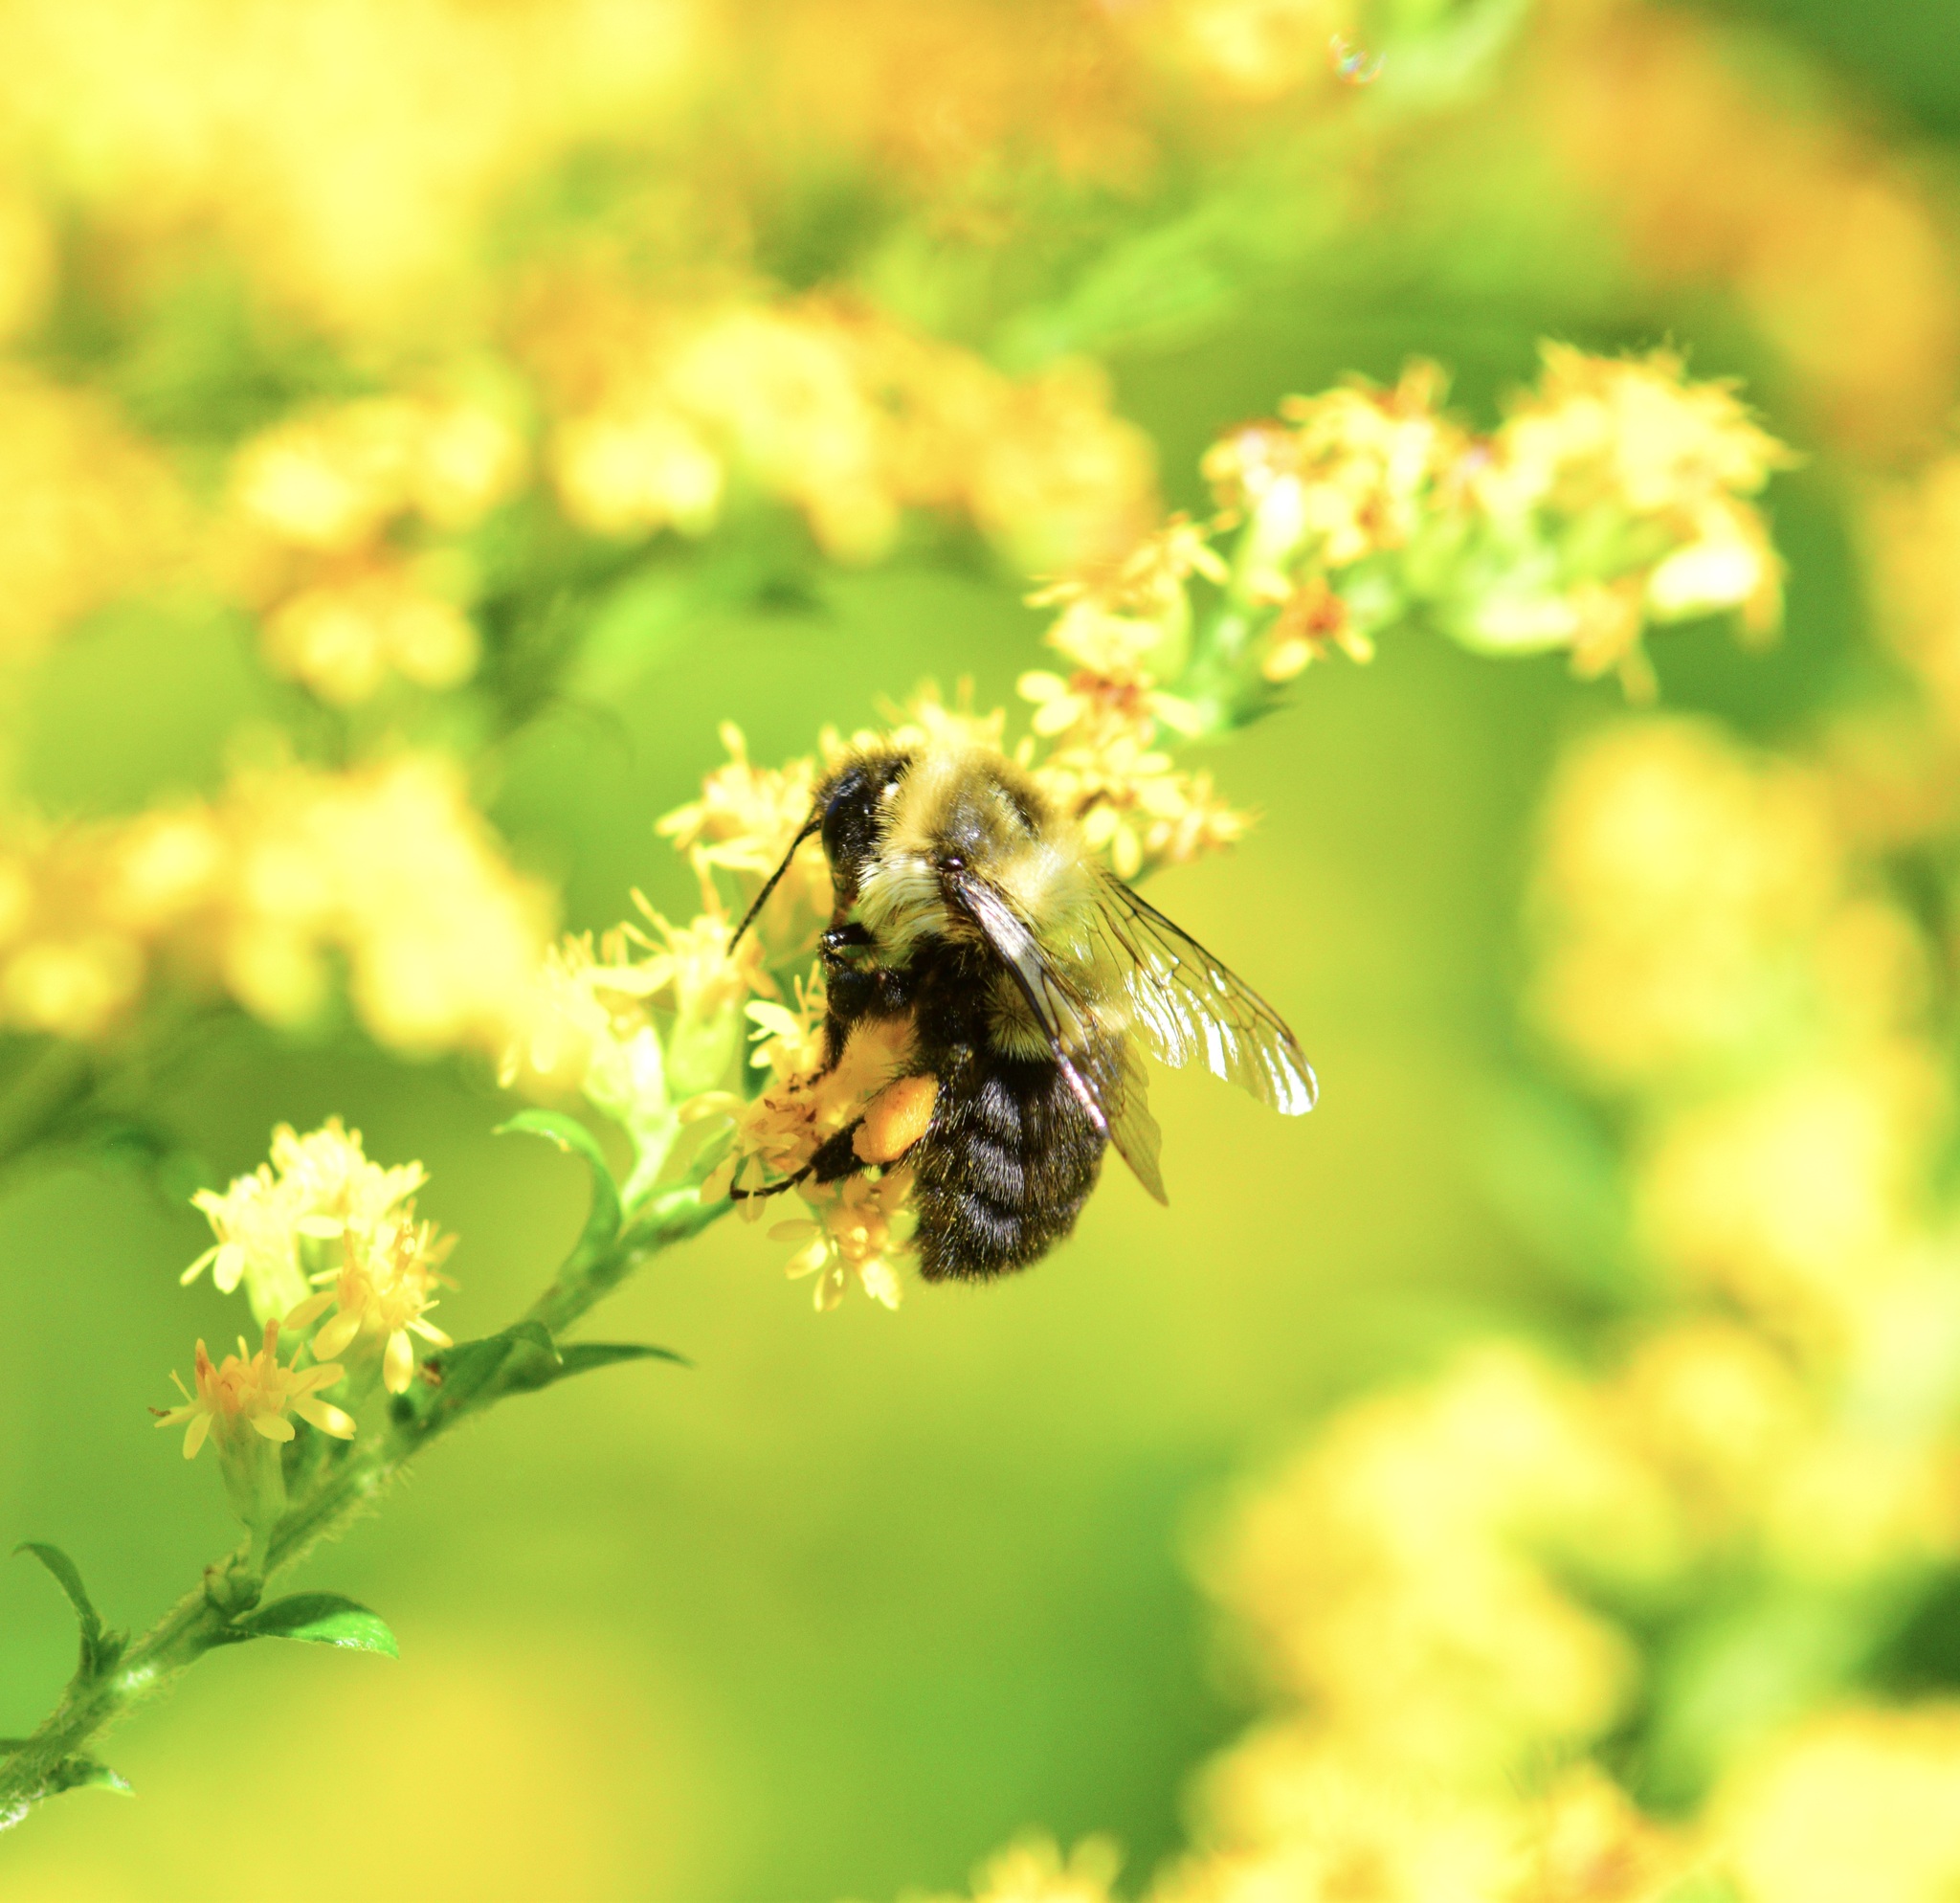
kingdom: Animalia
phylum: Arthropoda
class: Insecta
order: Hymenoptera
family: Apidae
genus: Bombus
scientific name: Bombus impatiens
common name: Common eastern bumble bee
